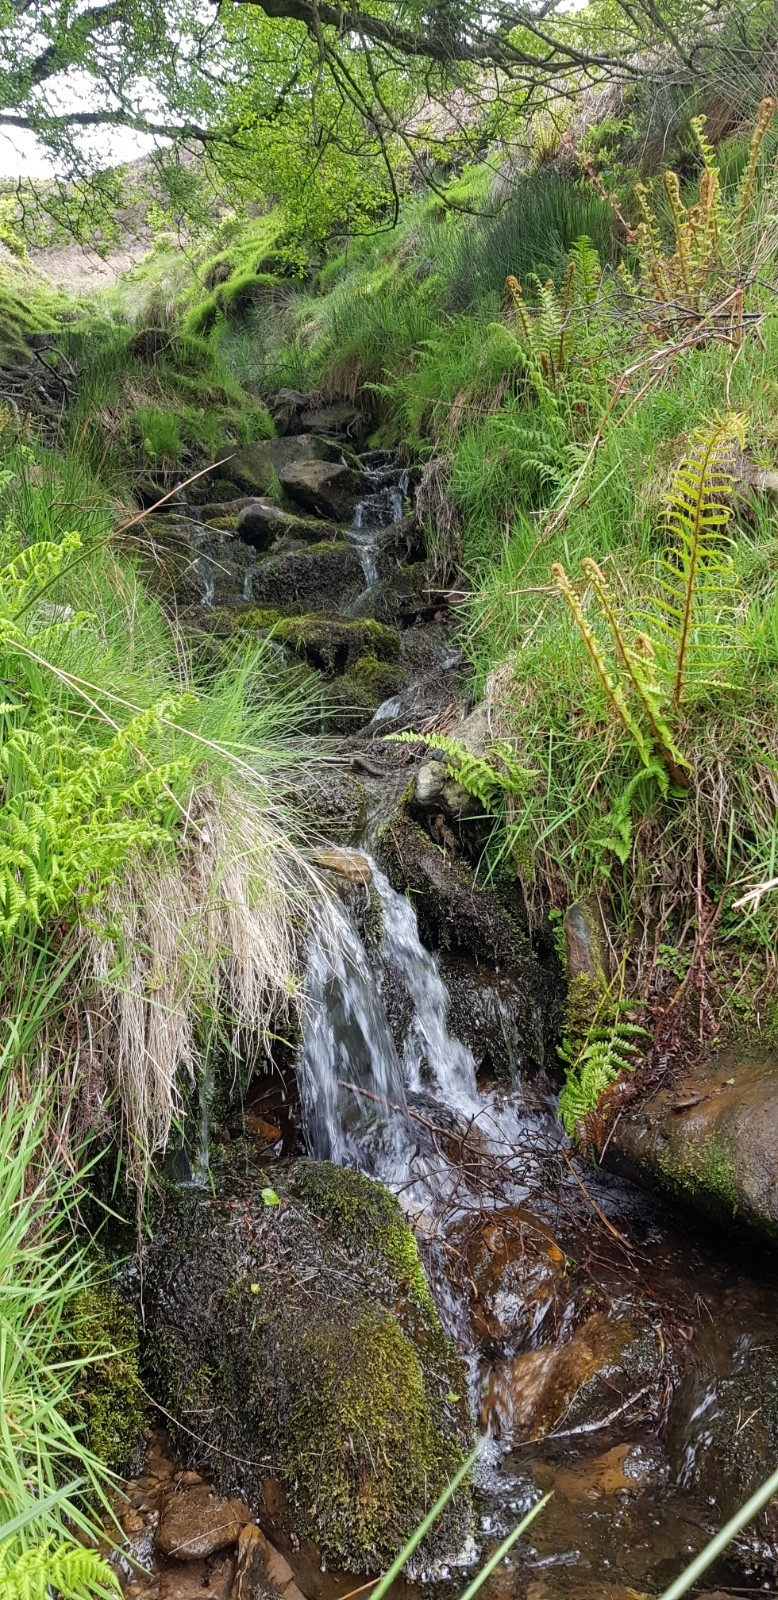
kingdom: Plantae
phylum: Bryophyta
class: Bryopsida
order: Hypnales
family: Brachytheciaceae
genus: Brachythecium
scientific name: Brachythecium rivulare
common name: River ragged moss
